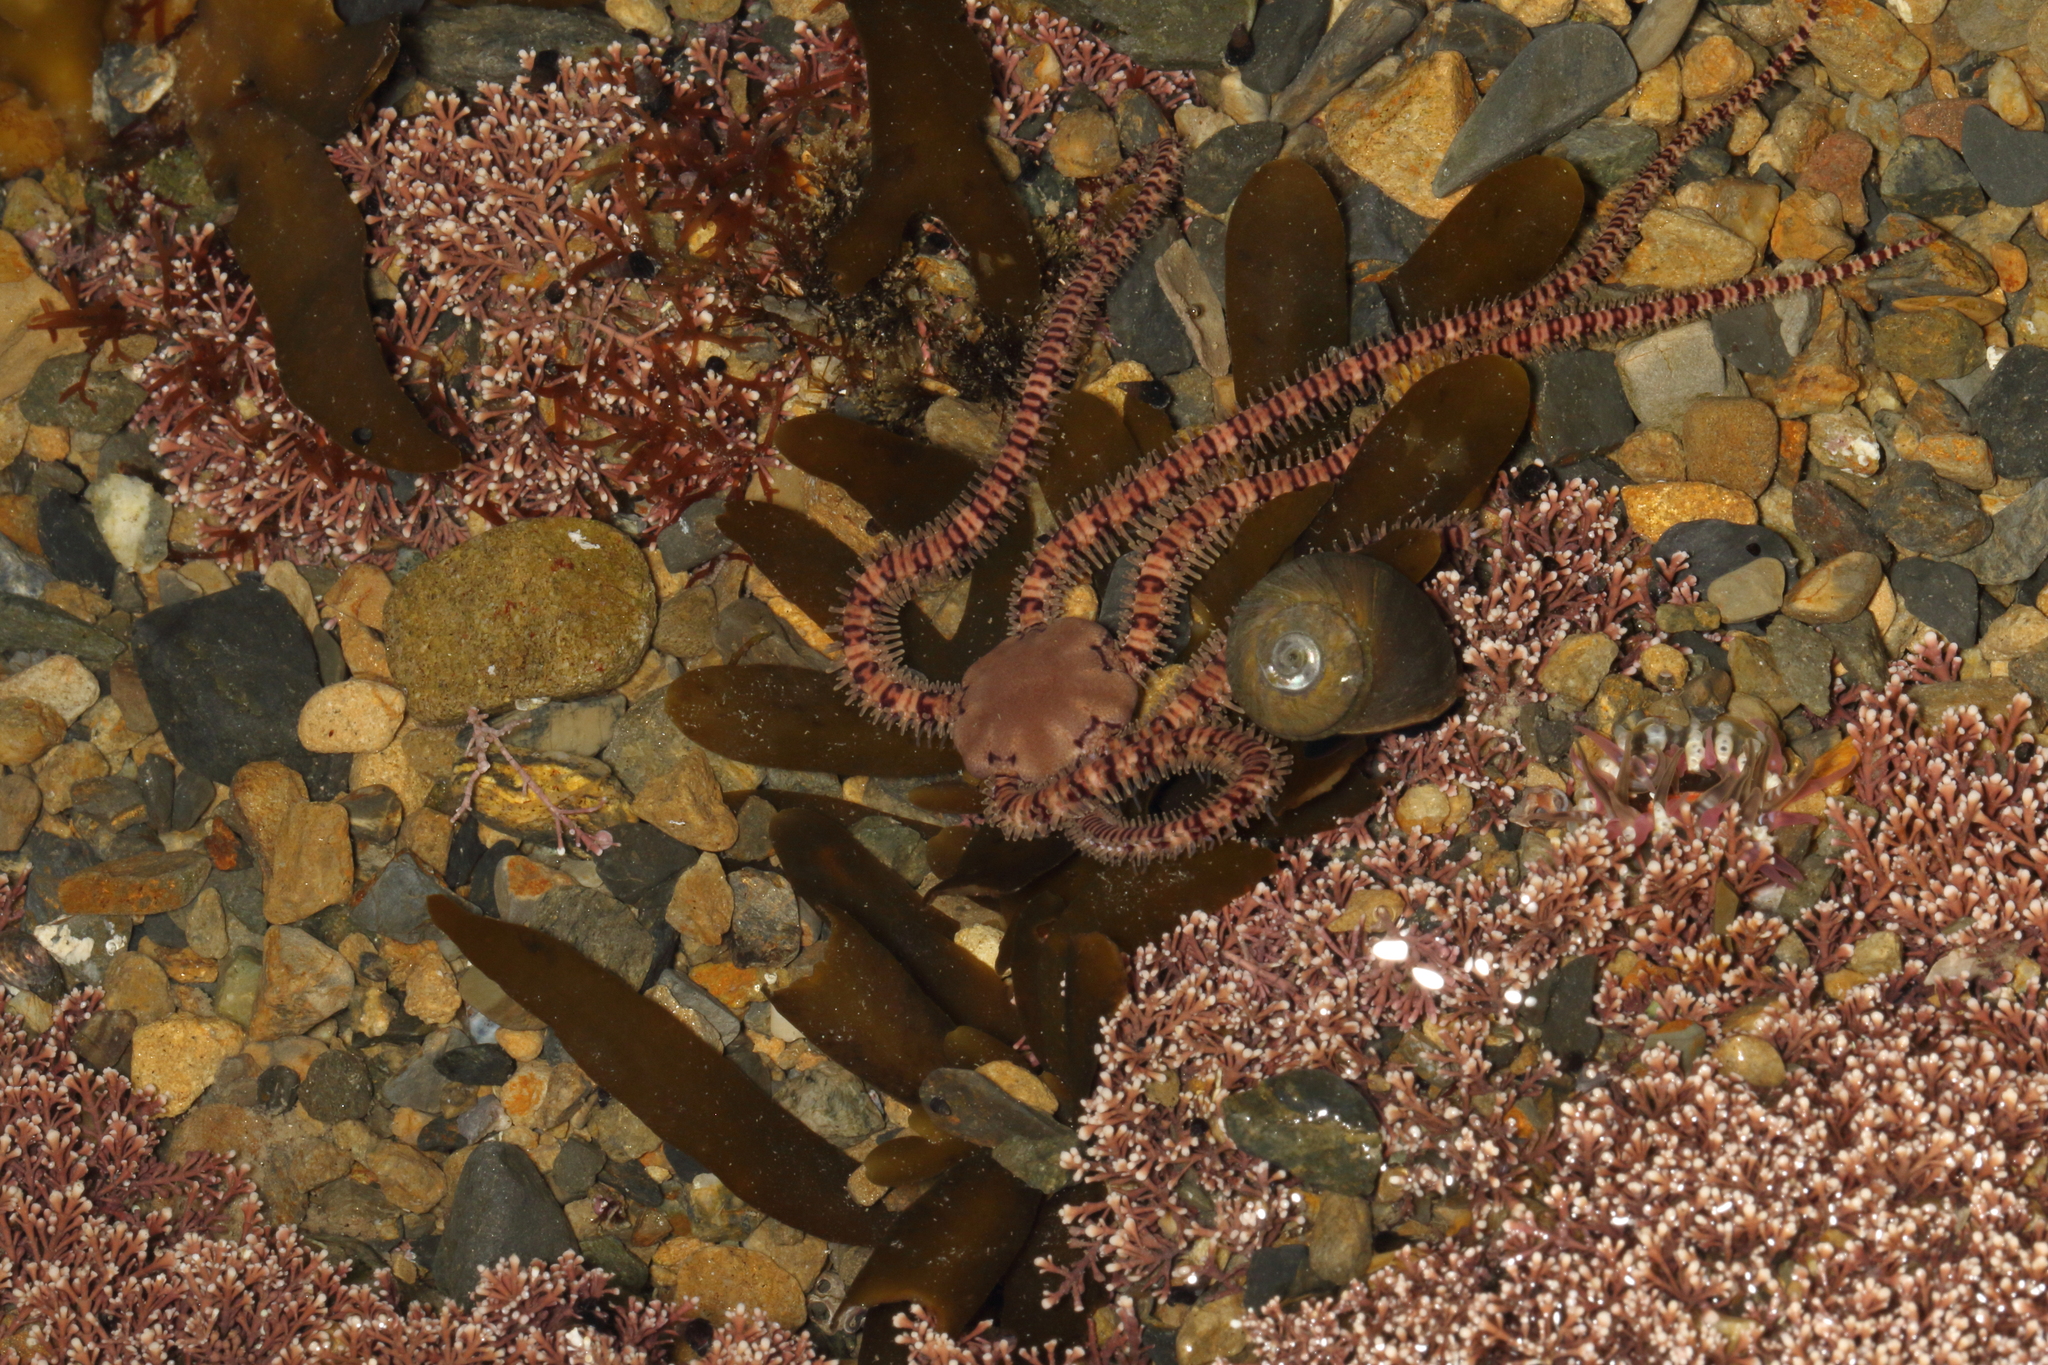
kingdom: Animalia
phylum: Echinodermata
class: Ophiuroidea
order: Amphilepidida
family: Ophionereididae
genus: Ophionereis
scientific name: Ophionereis fasciata
